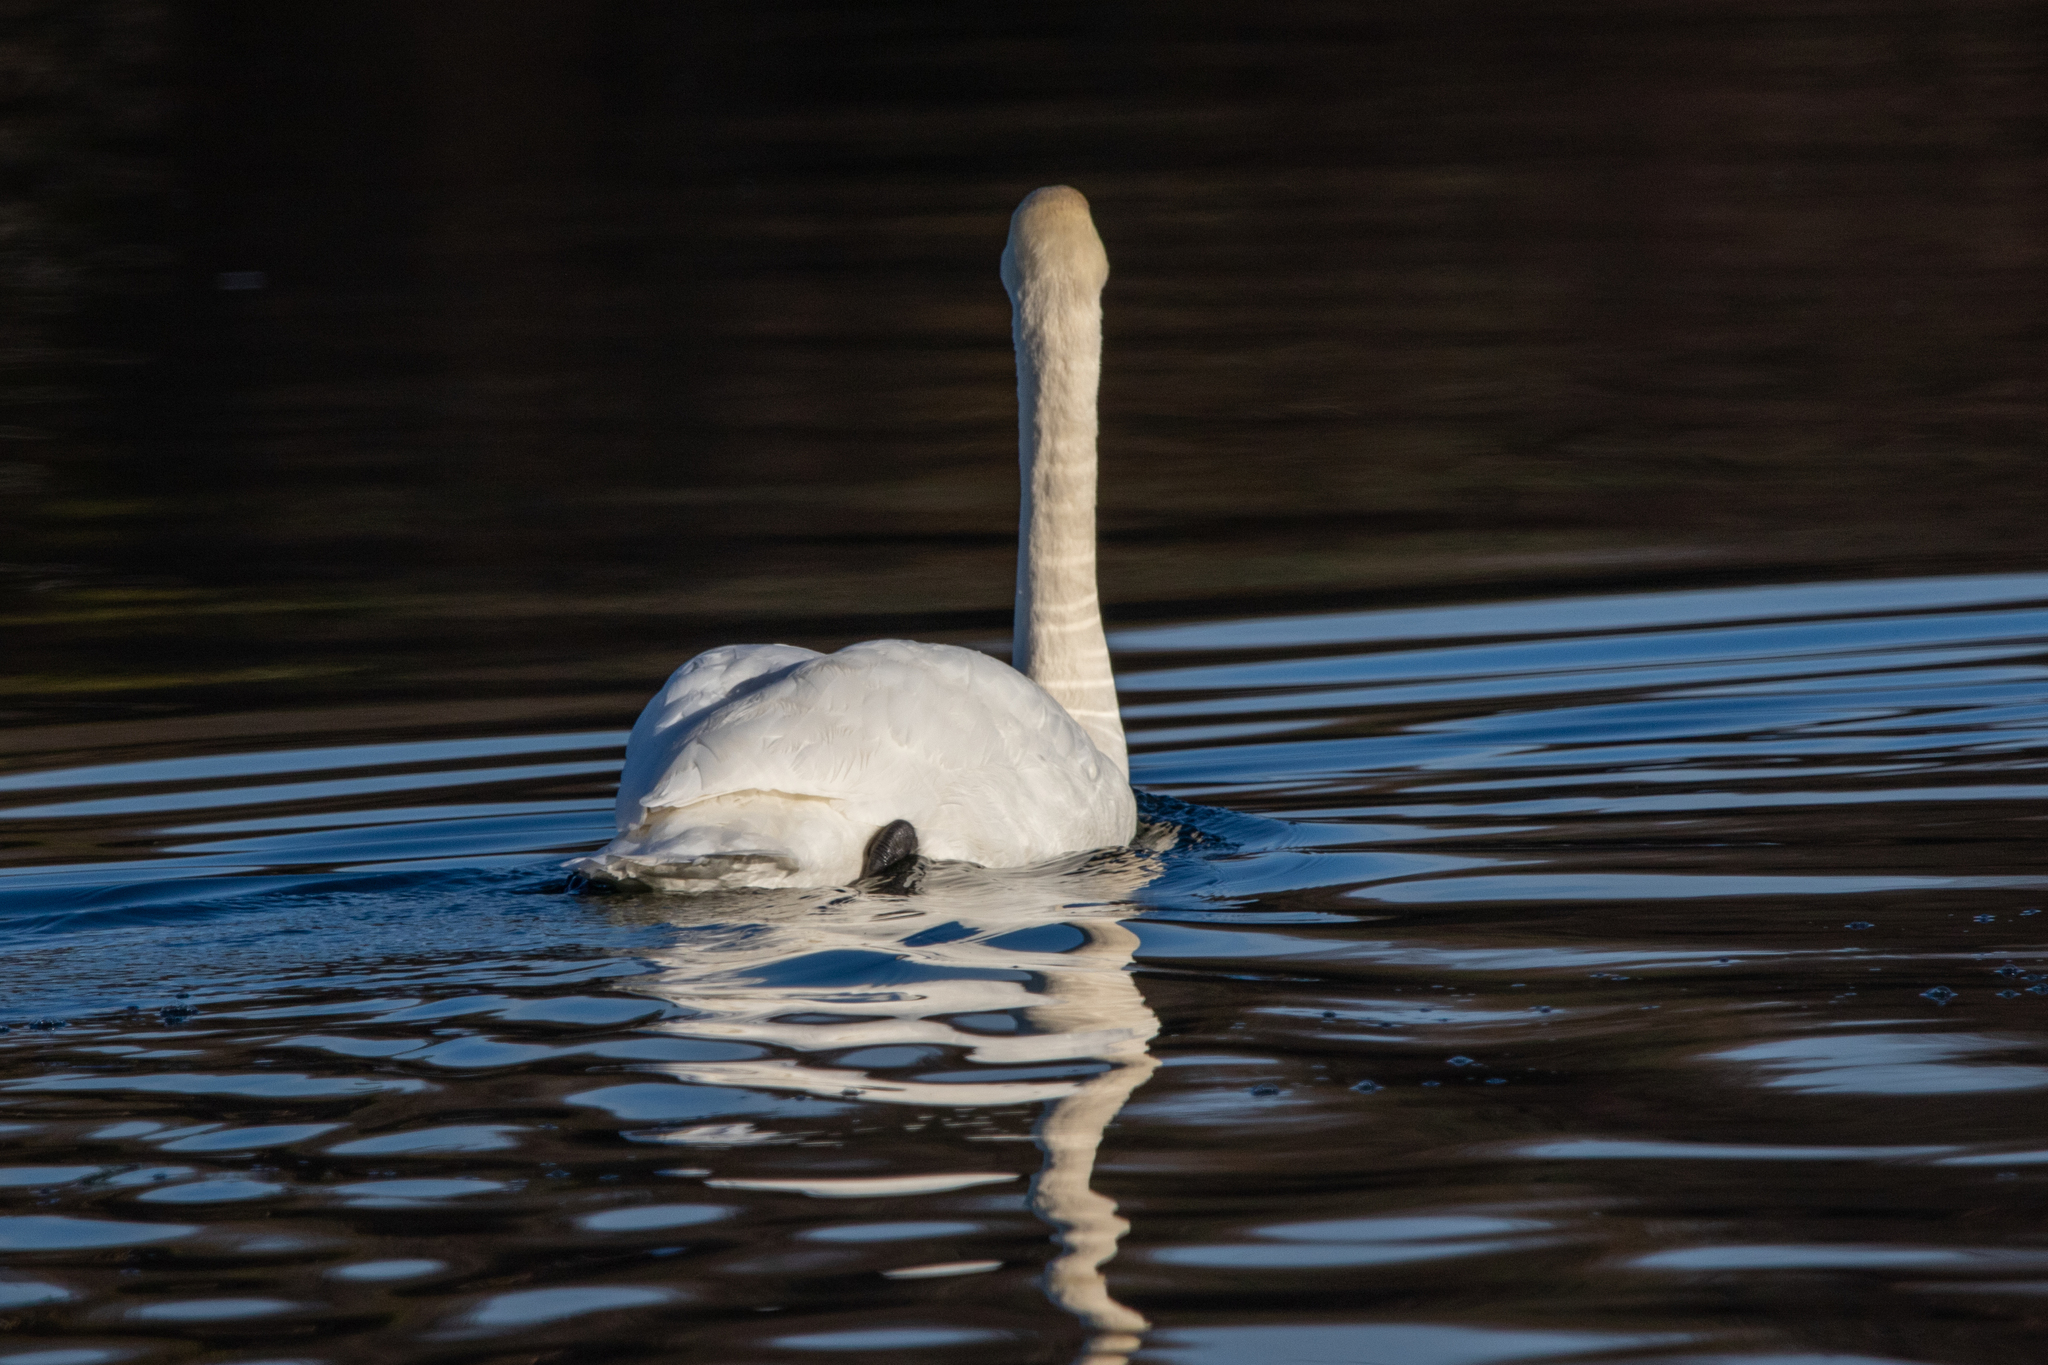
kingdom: Animalia
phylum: Chordata
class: Aves
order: Anseriformes
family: Anatidae
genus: Cygnus
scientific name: Cygnus olor
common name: Mute swan
